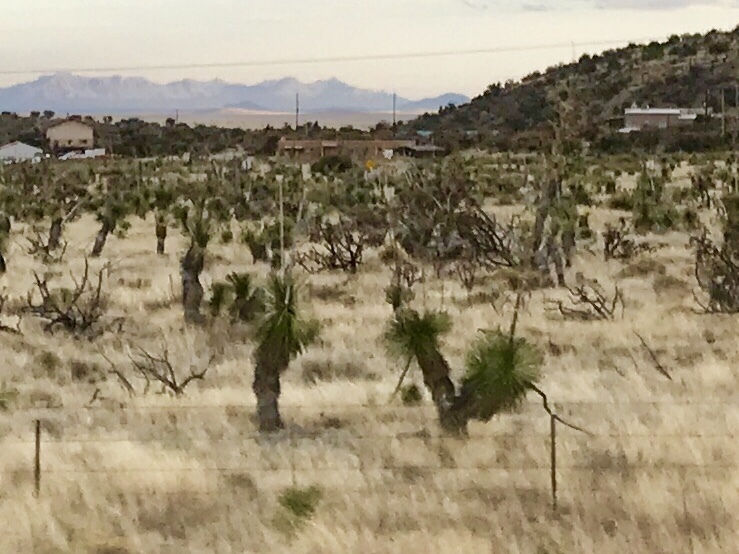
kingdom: Plantae
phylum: Tracheophyta
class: Liliopsida
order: Asparagales
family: Asparagaceae
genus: Yucca
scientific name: Yucca elata
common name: Palmella
